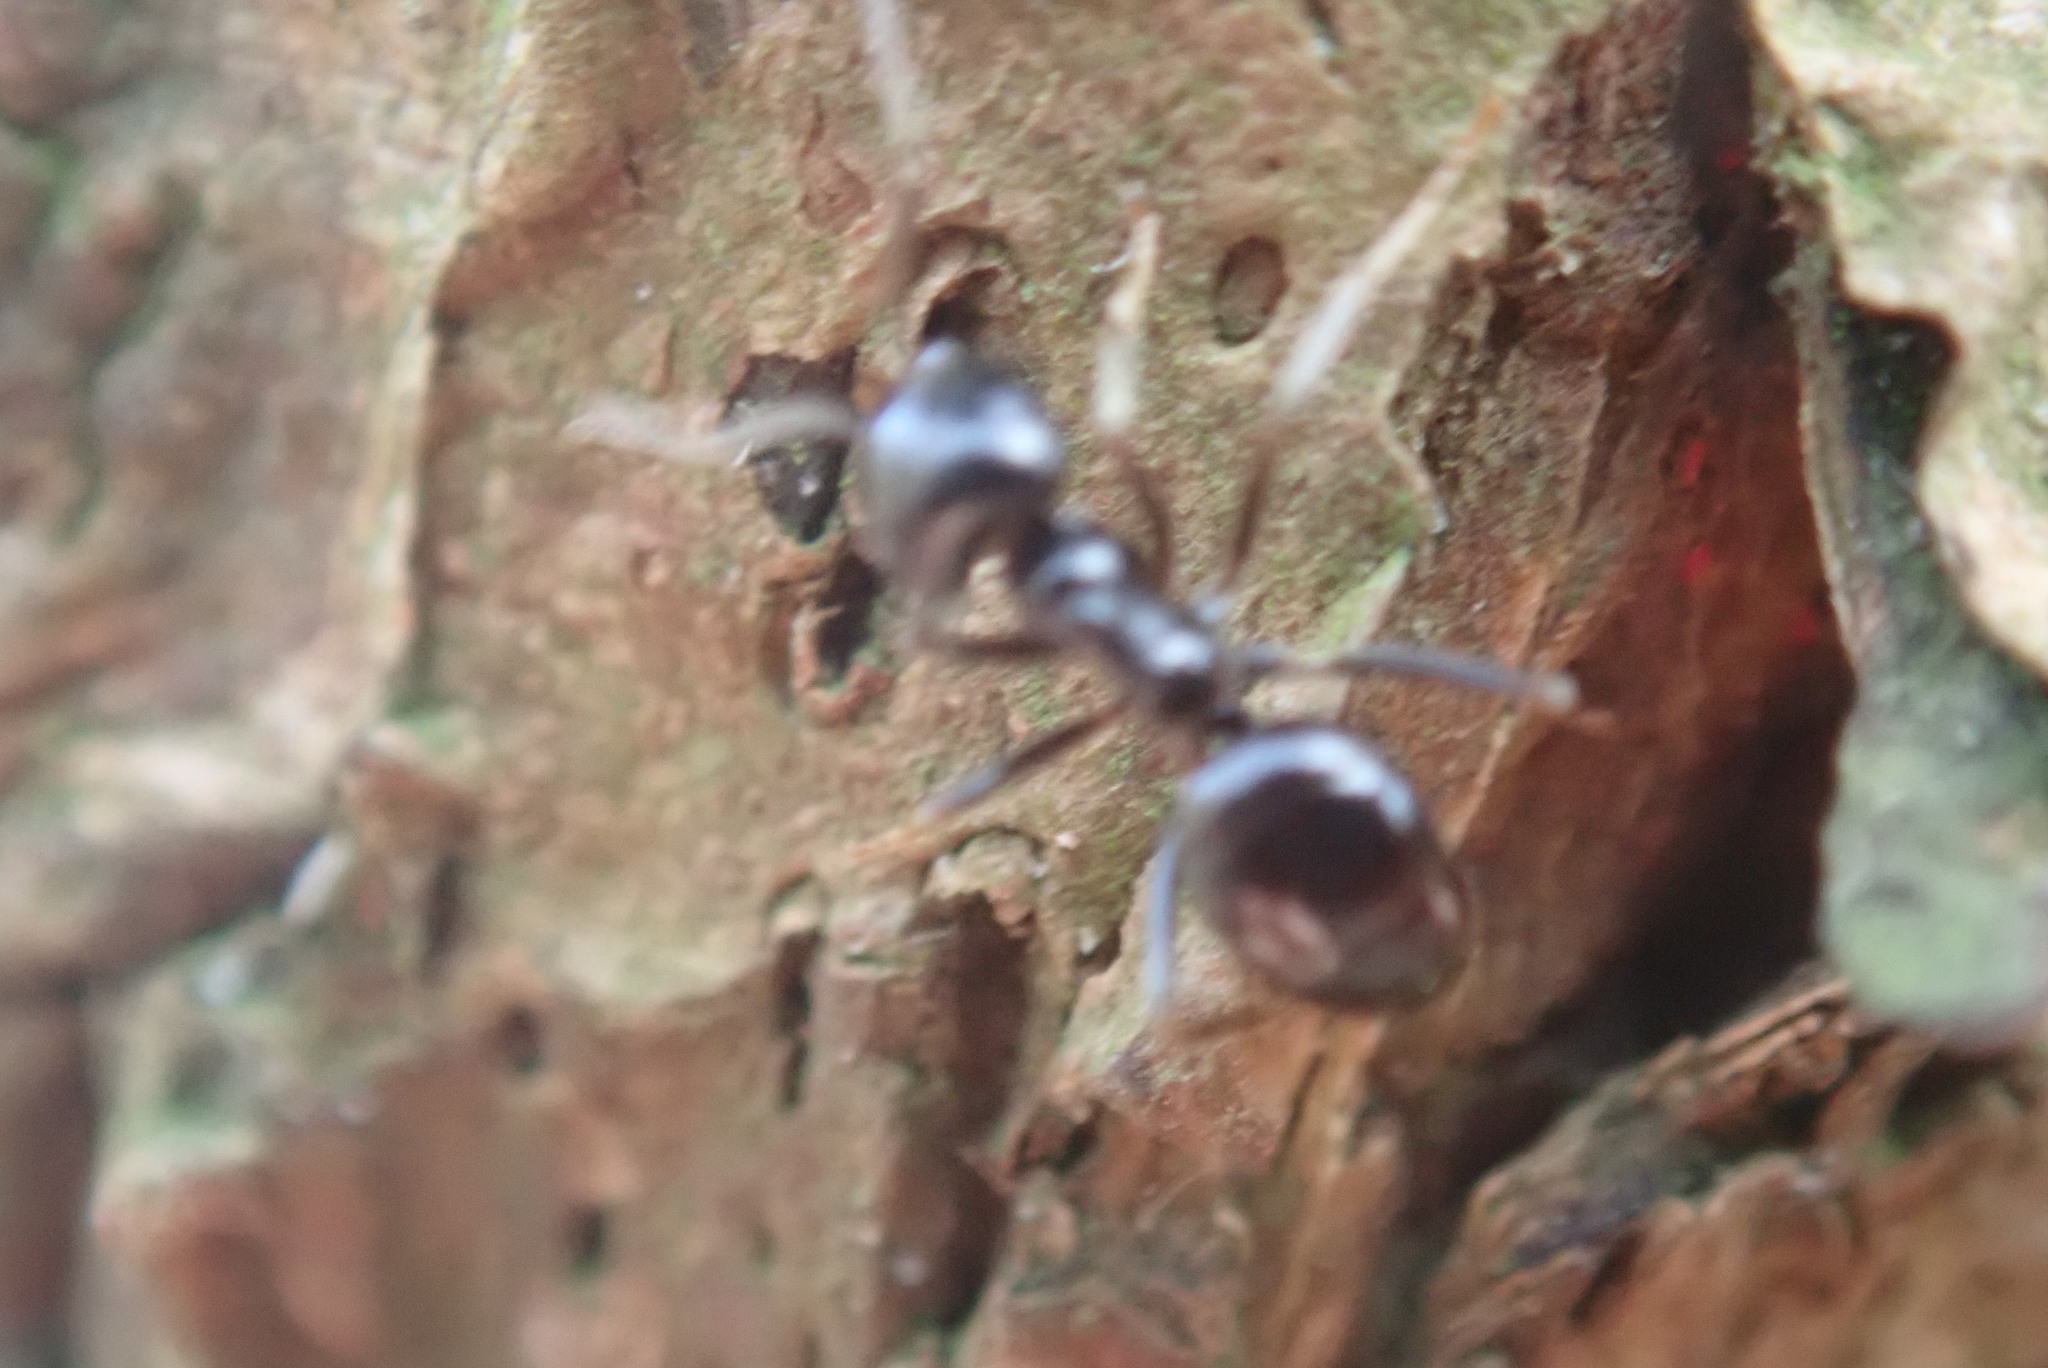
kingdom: Animalia
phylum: Arthropoda
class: Insecta
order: Hymenoptera
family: Formicidae
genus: Lasius
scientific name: Lasius fuliginosus
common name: Jet ant
